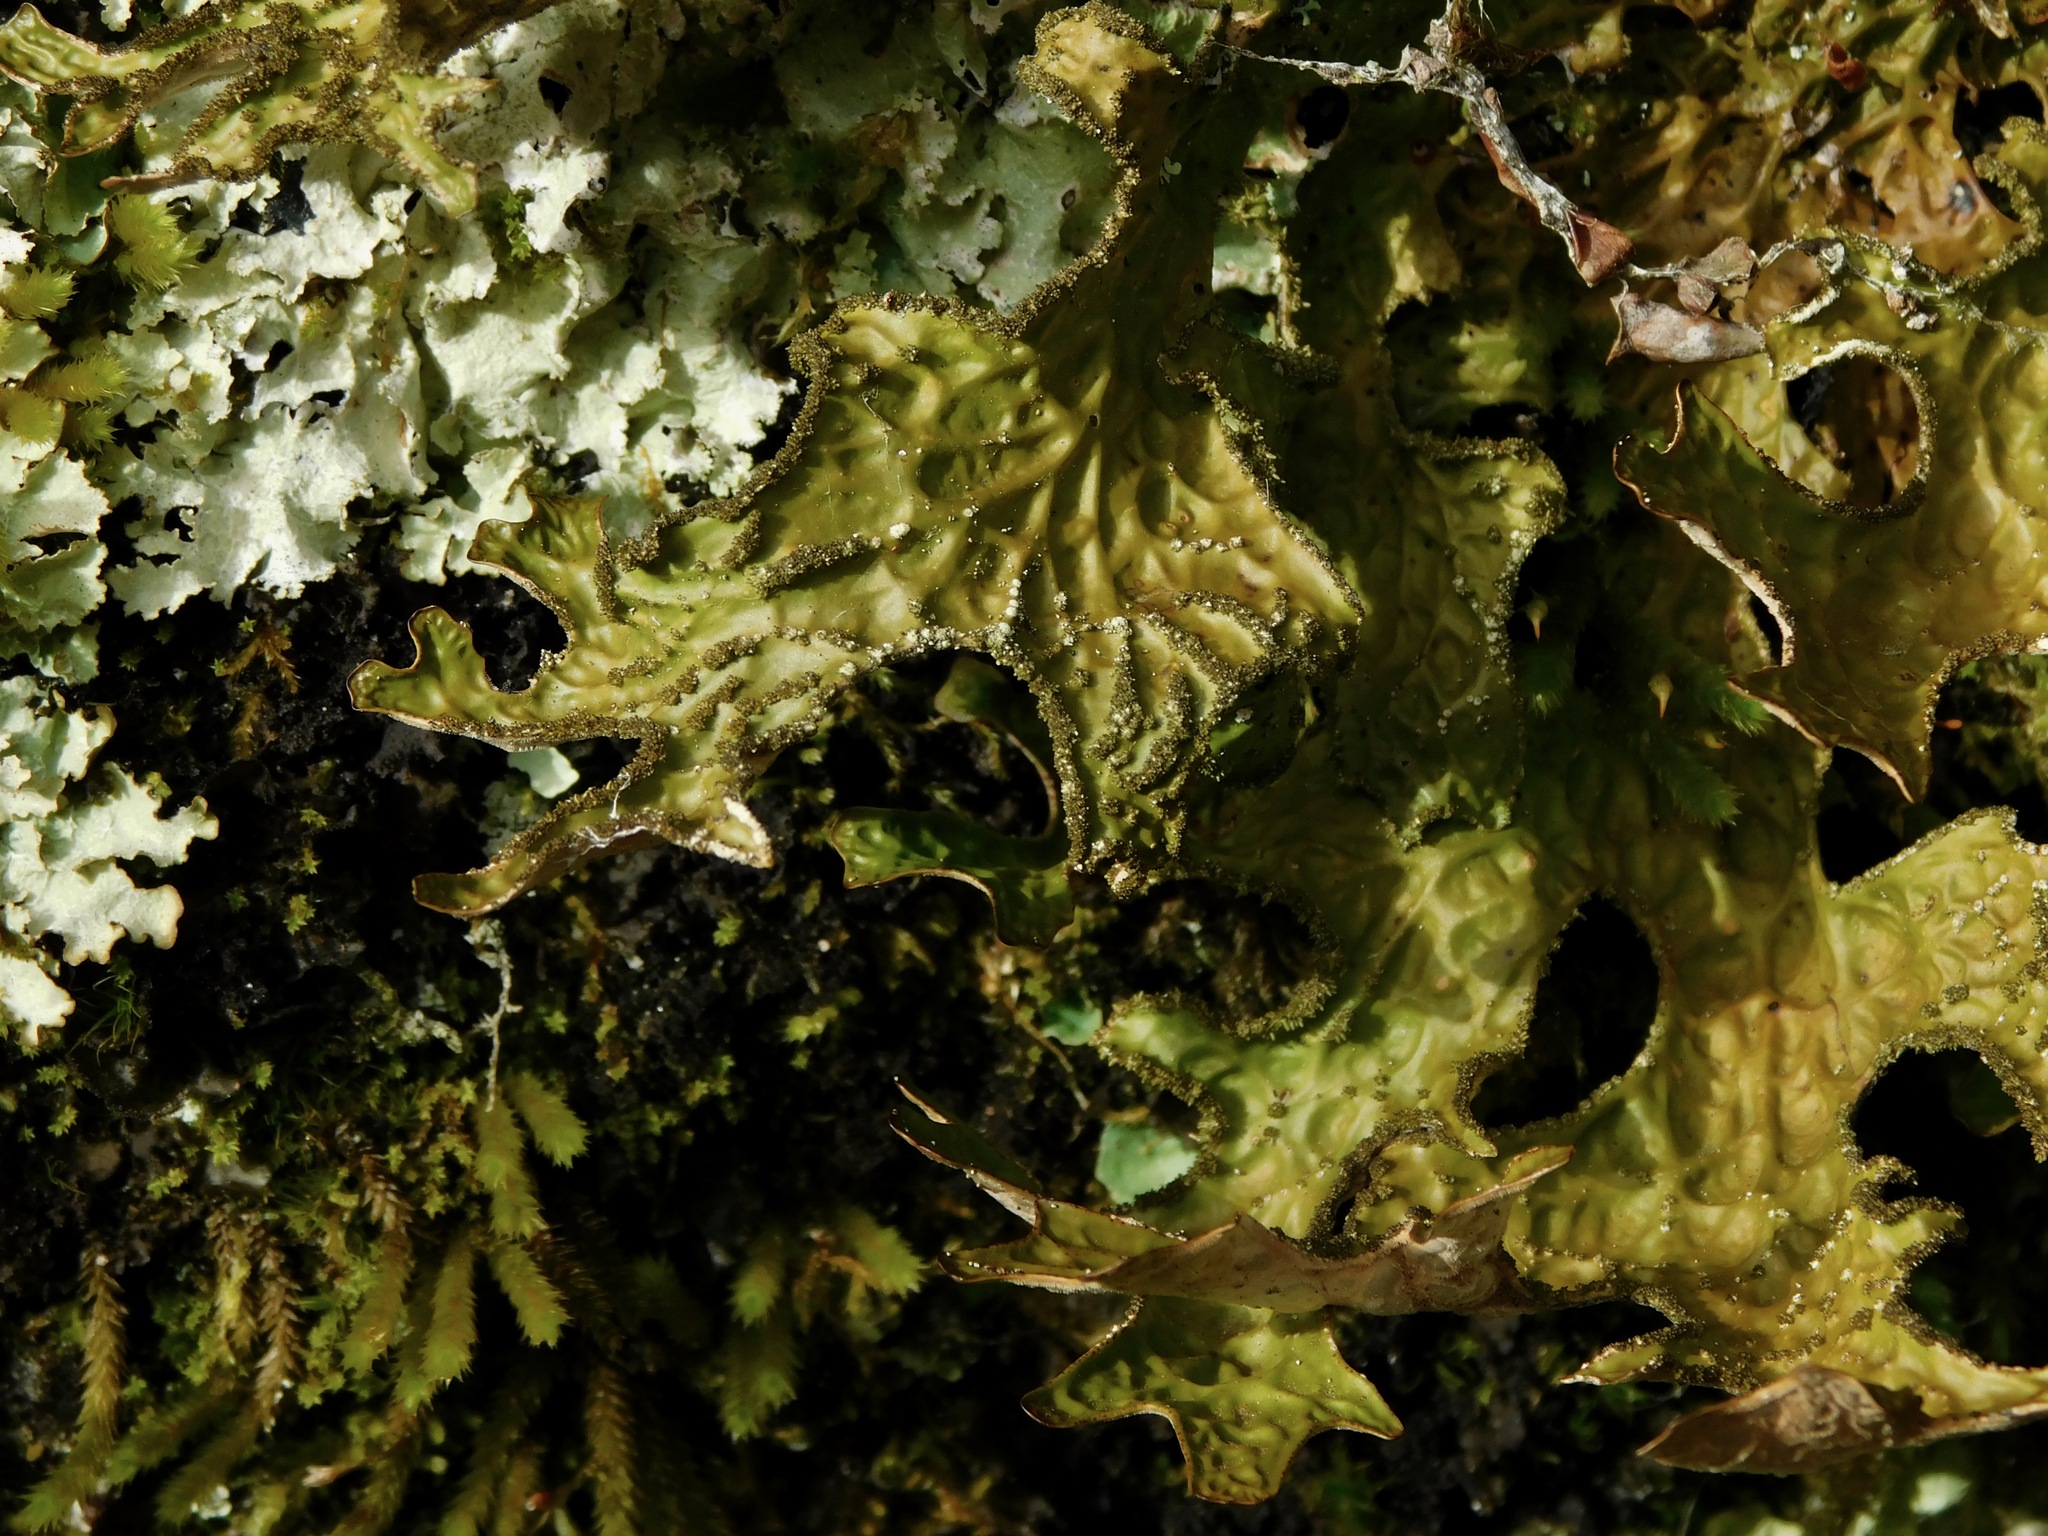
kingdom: Fungi
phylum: Ascomycota
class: Lecanoromycetes
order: Peltigerales
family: Lobariaceae
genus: Lobaria
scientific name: Lobaria pulmonaria
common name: Lungwort
